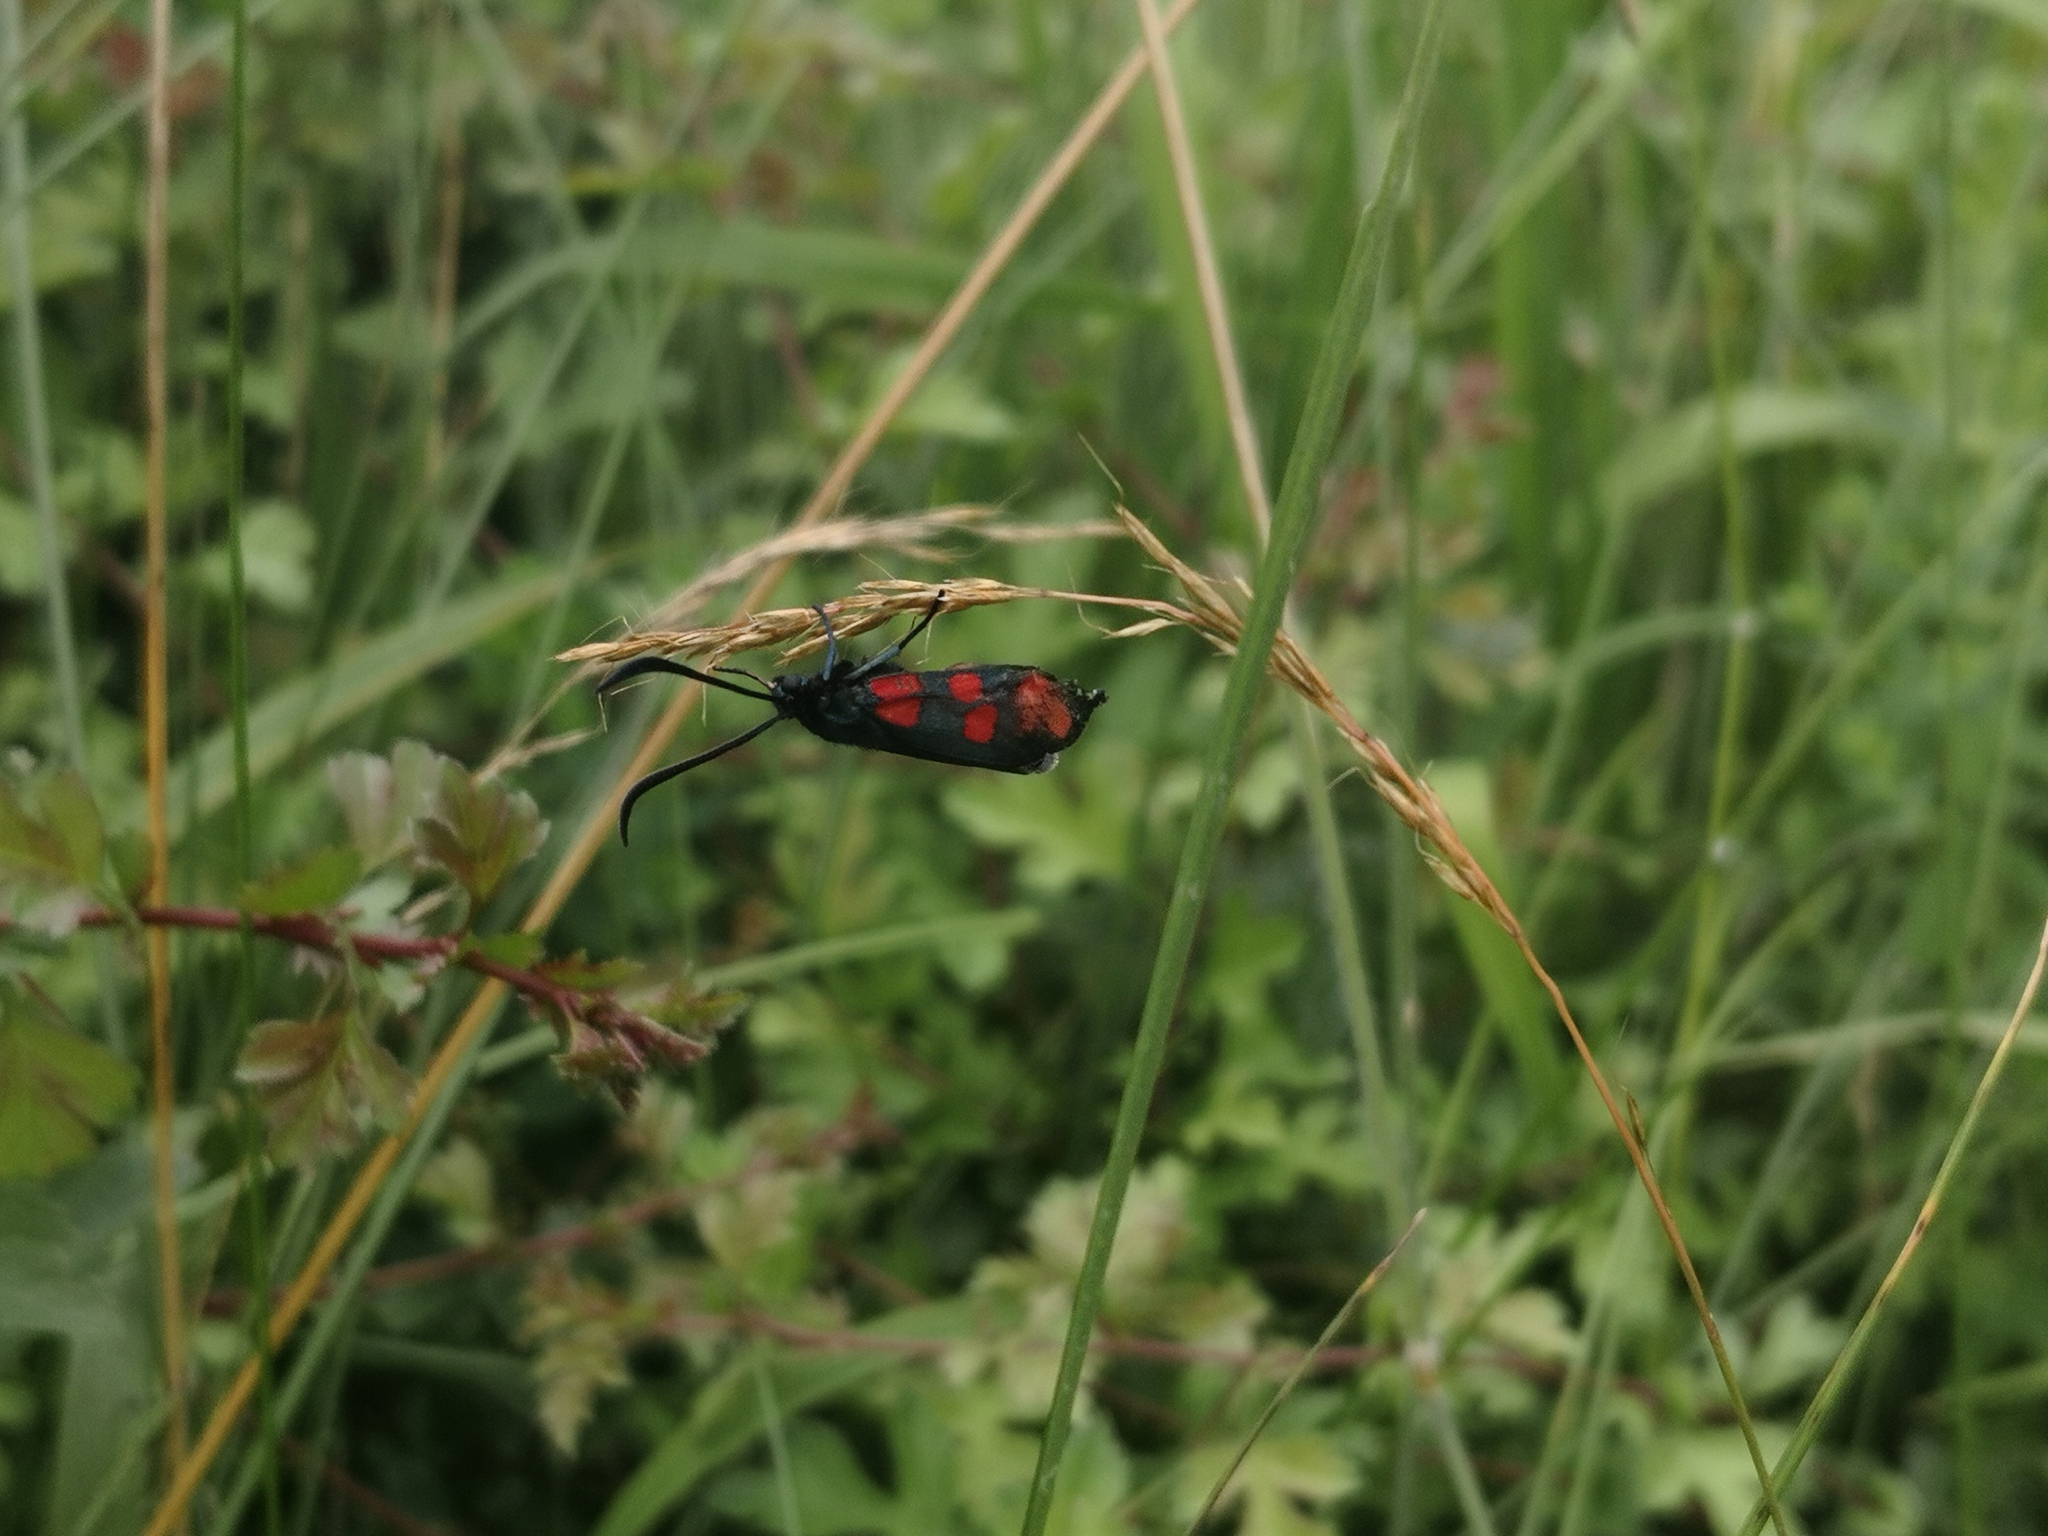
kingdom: Animalia
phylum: Arthropoda
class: Insecta
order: Lepidoptera
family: Zygaenidae
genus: Zygaena
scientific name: Zygaena filipendulae
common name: Six-spot burnet
